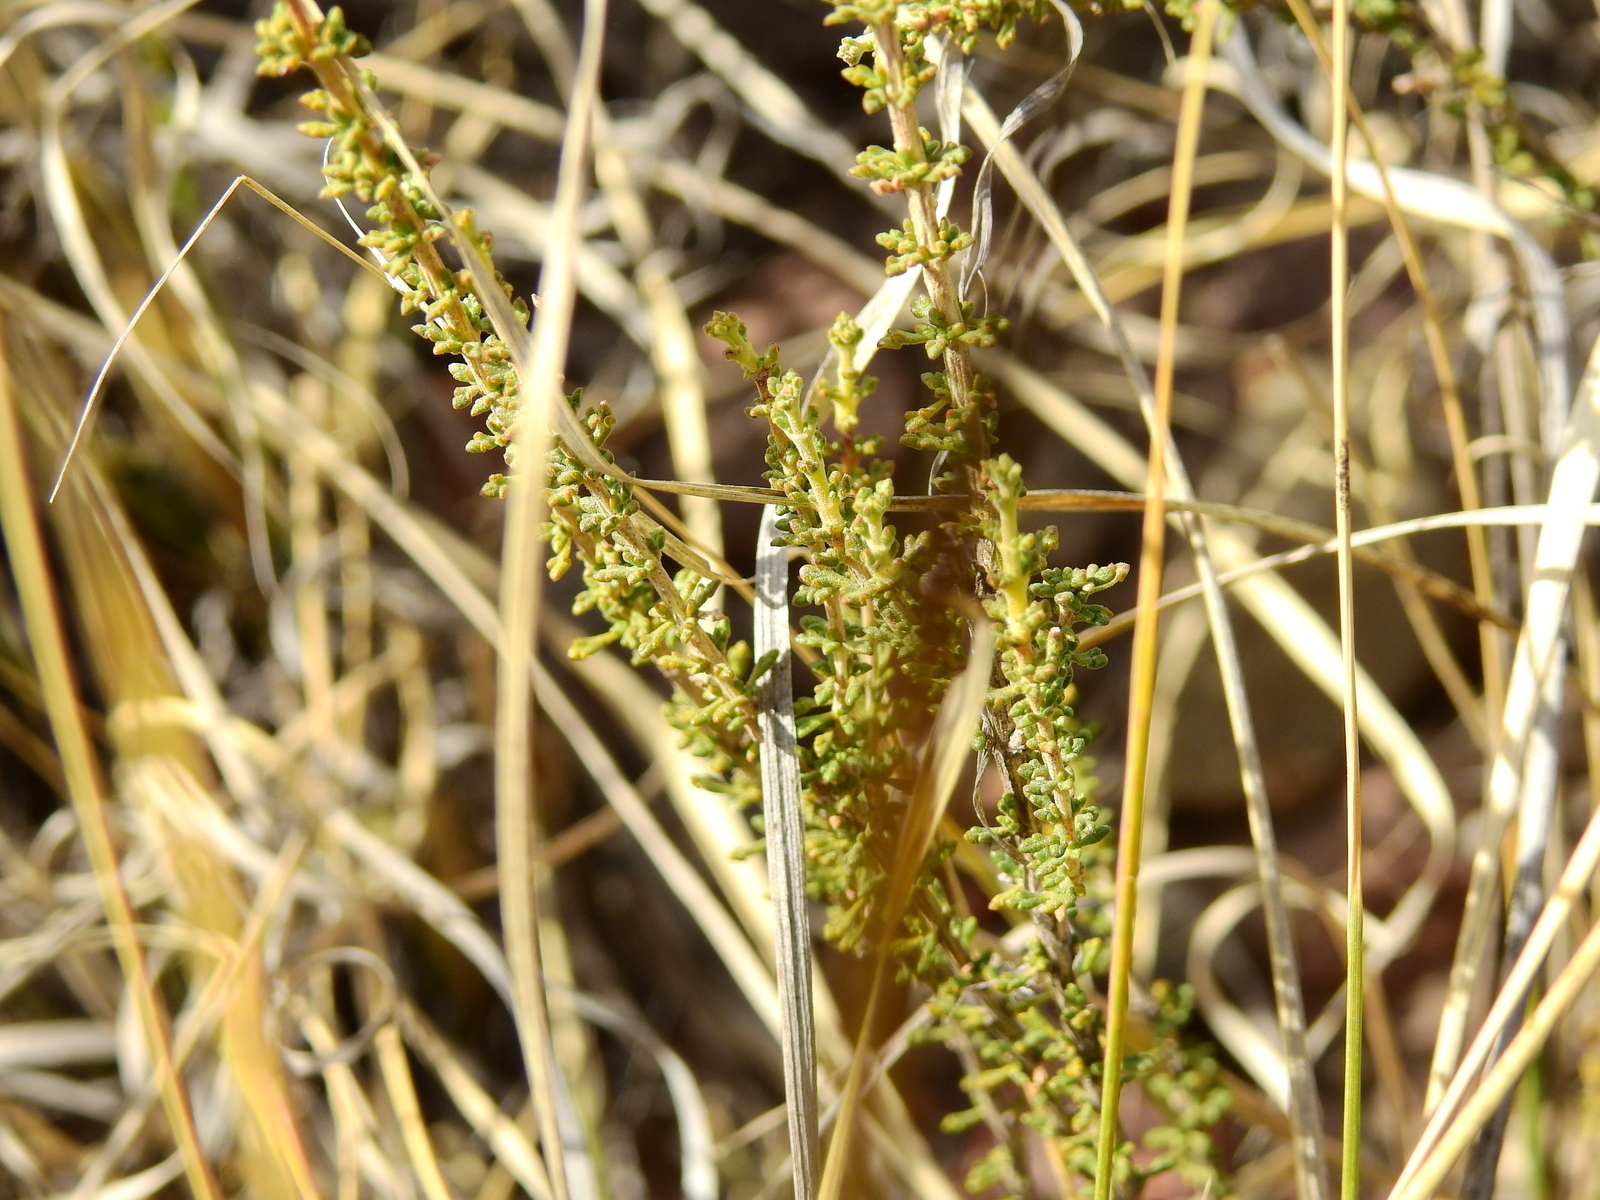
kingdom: Plantae
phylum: Tracheophyta
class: Magnoliopsida
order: Lamiales
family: Verbenaceae
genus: Acantholippia
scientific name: Acantholippia seriphioides
